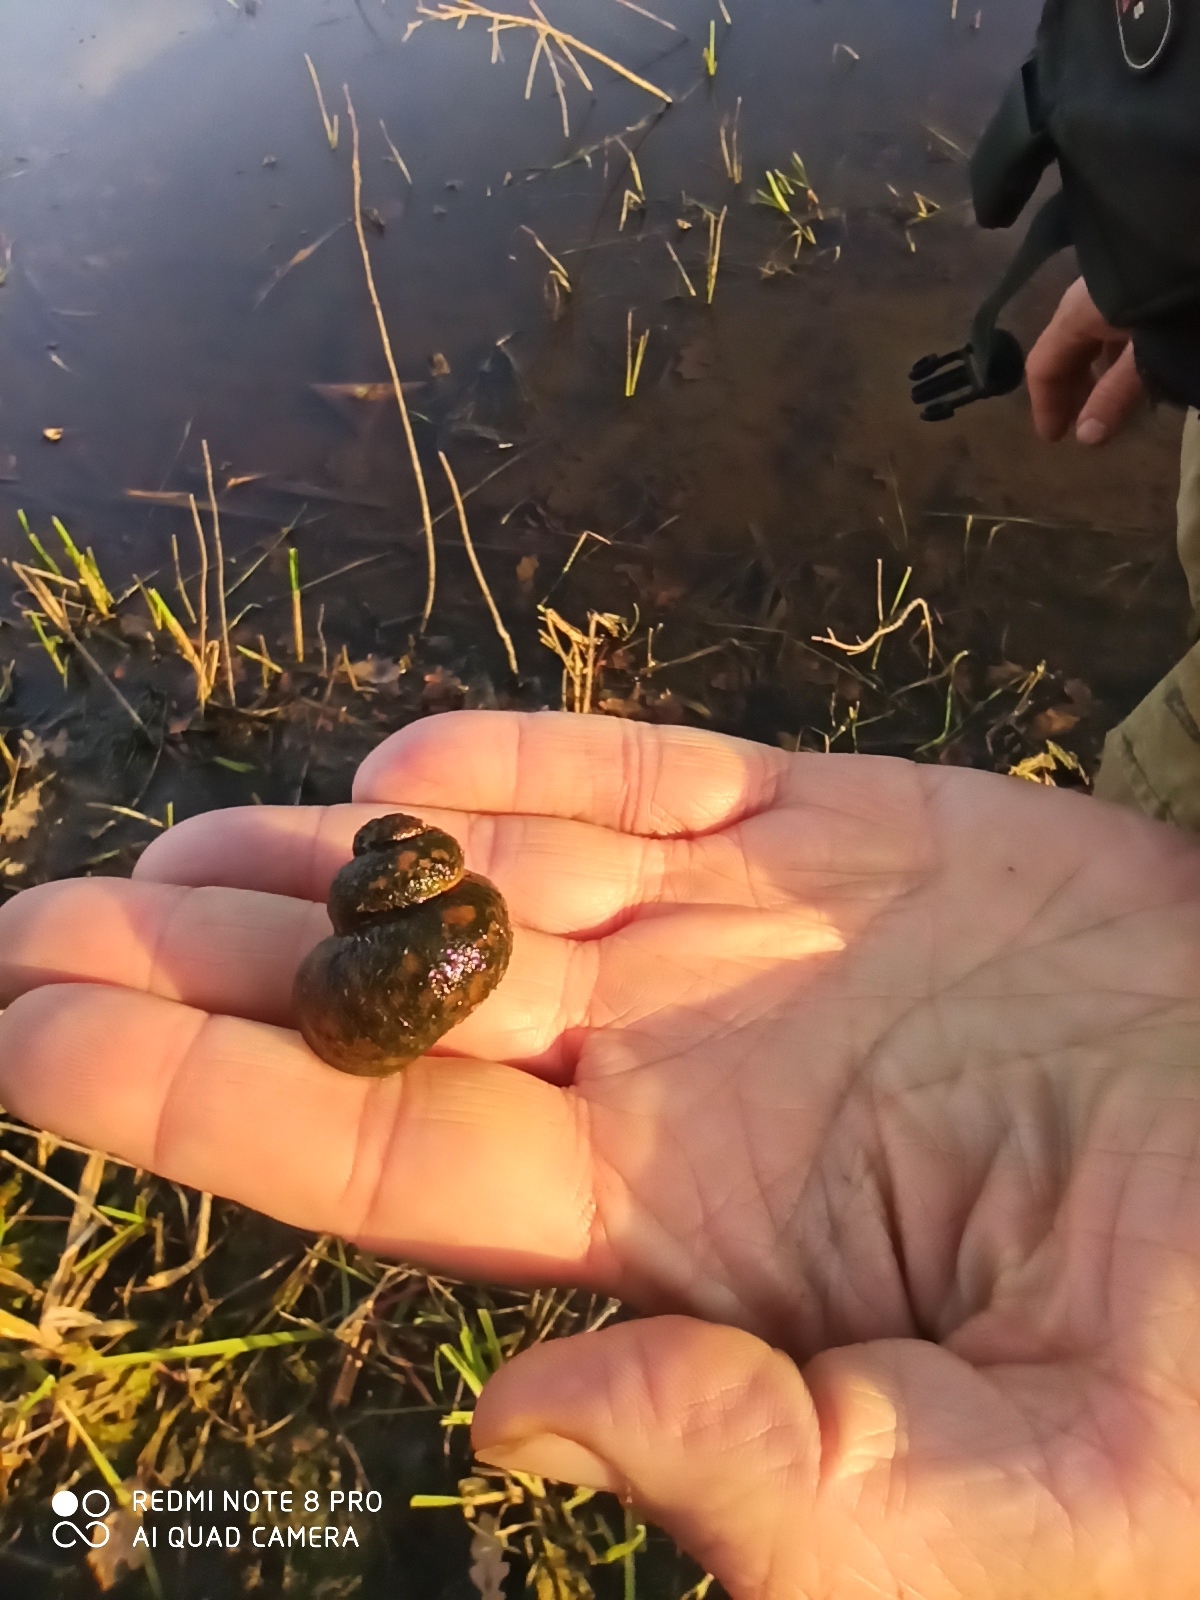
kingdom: Animalia
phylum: Mollusca
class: Gastropoda
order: Architaenioglossa
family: Viviparidae
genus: Viviparus
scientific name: Viviparus contectus
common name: Lister's river snail
